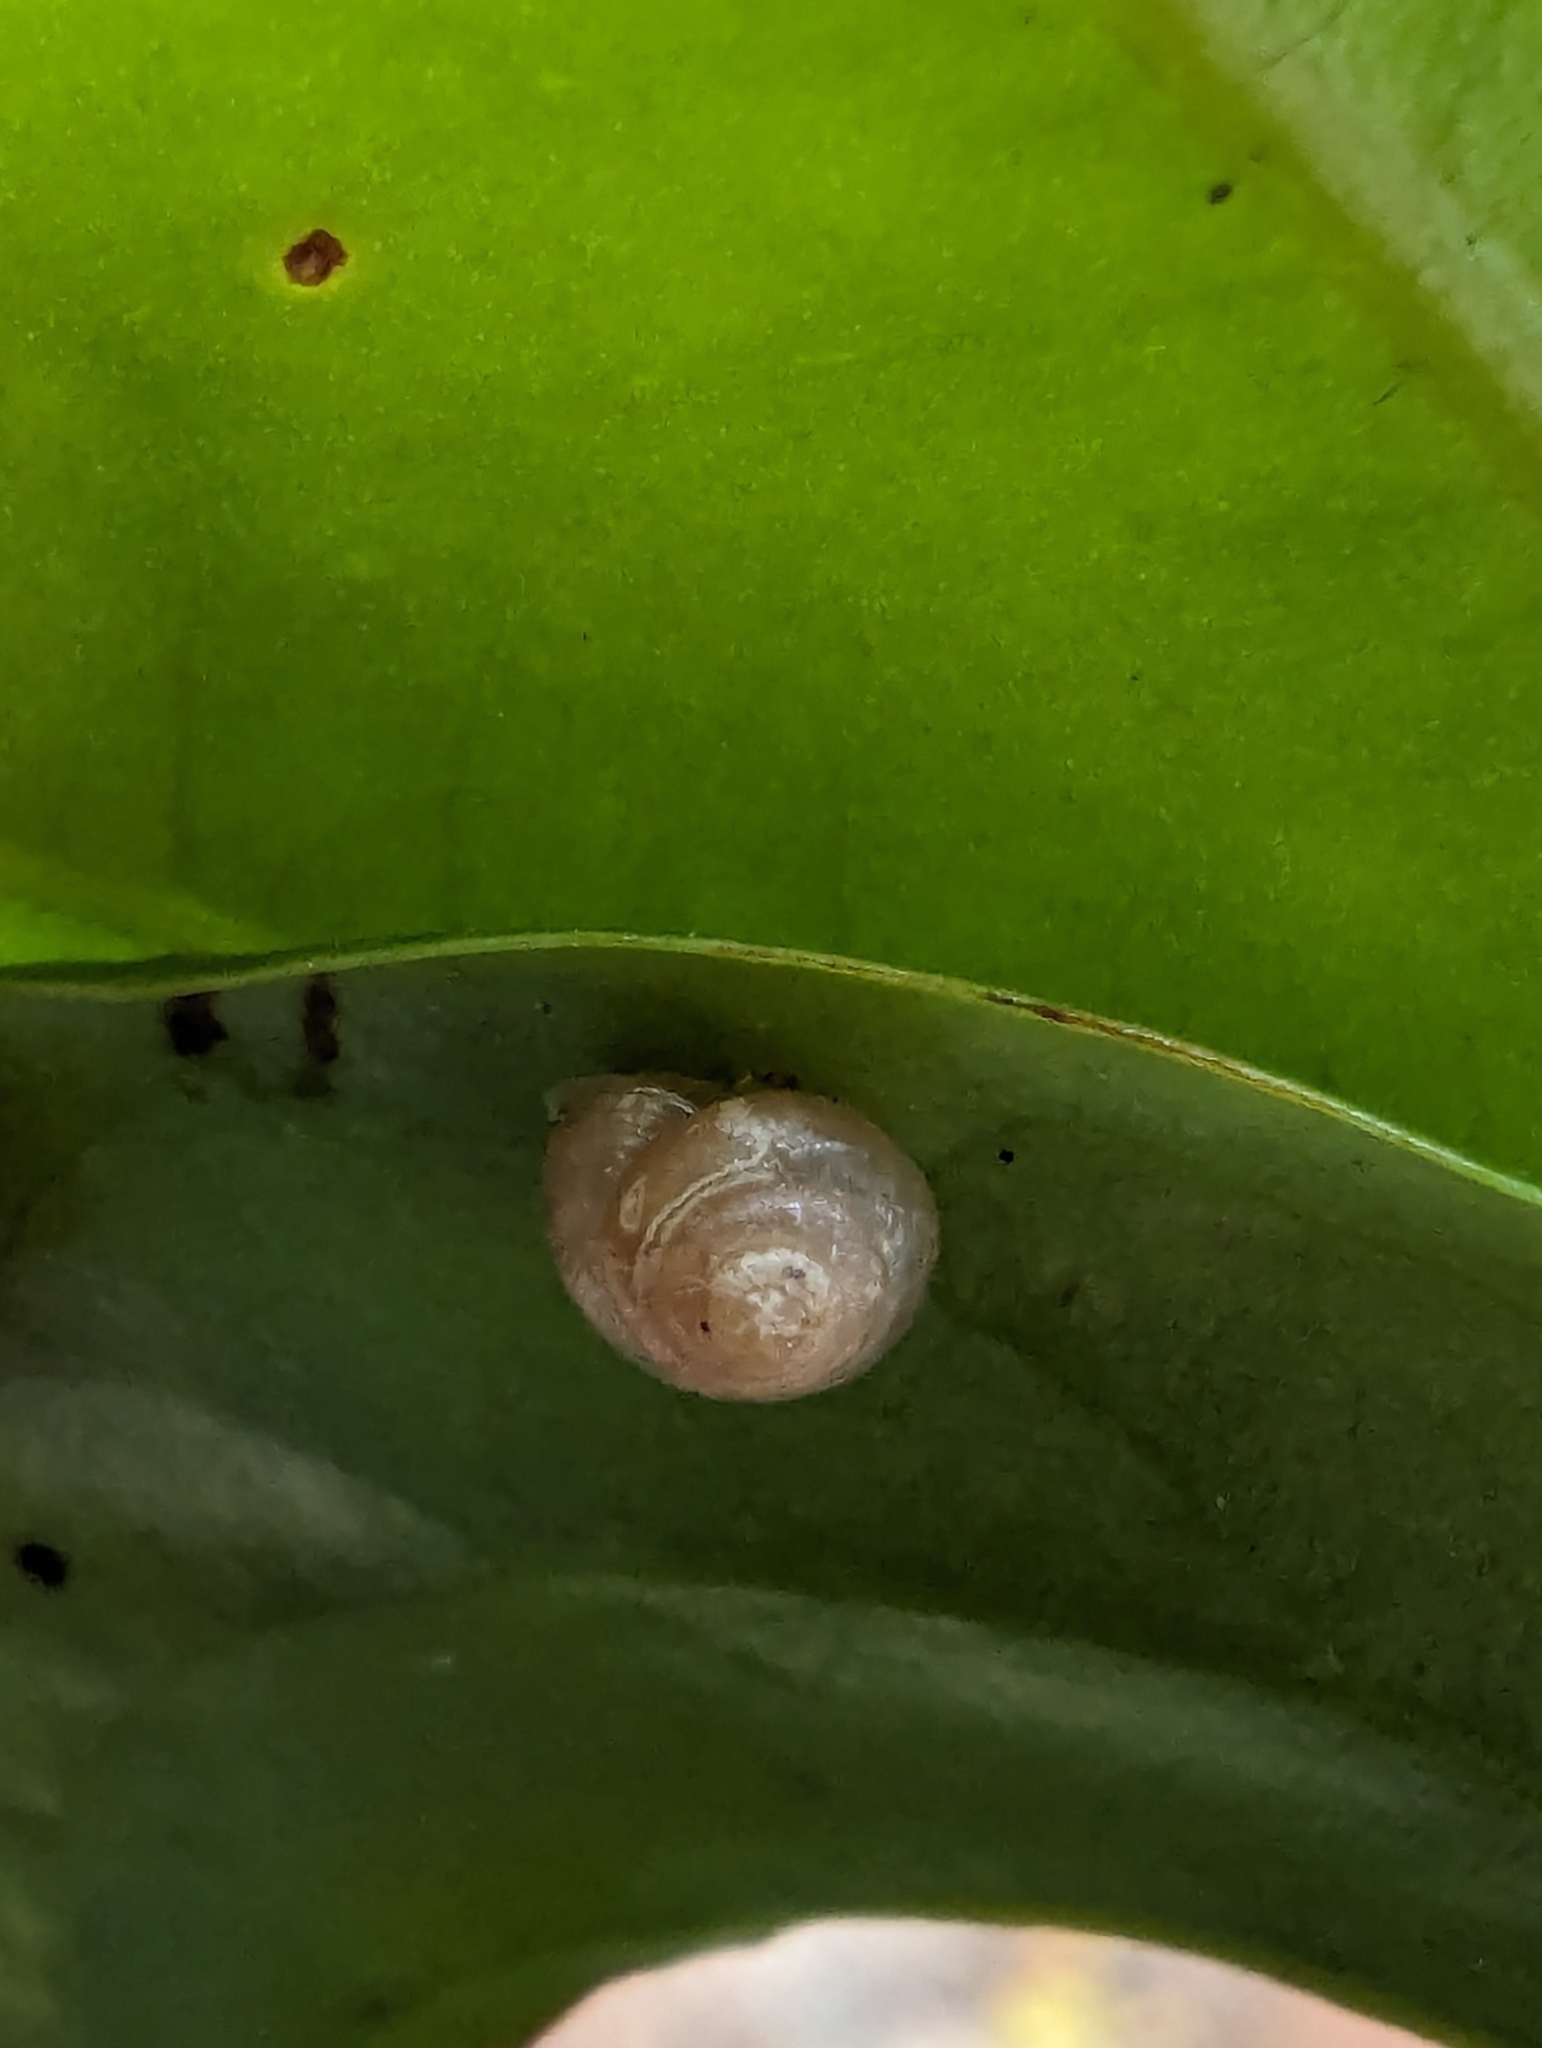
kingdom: Animalia
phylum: Mollusca
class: Gastropoda
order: Stylommatophora
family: Euconulidae
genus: Coneuplecta
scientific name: Coneuplecta calculosa
